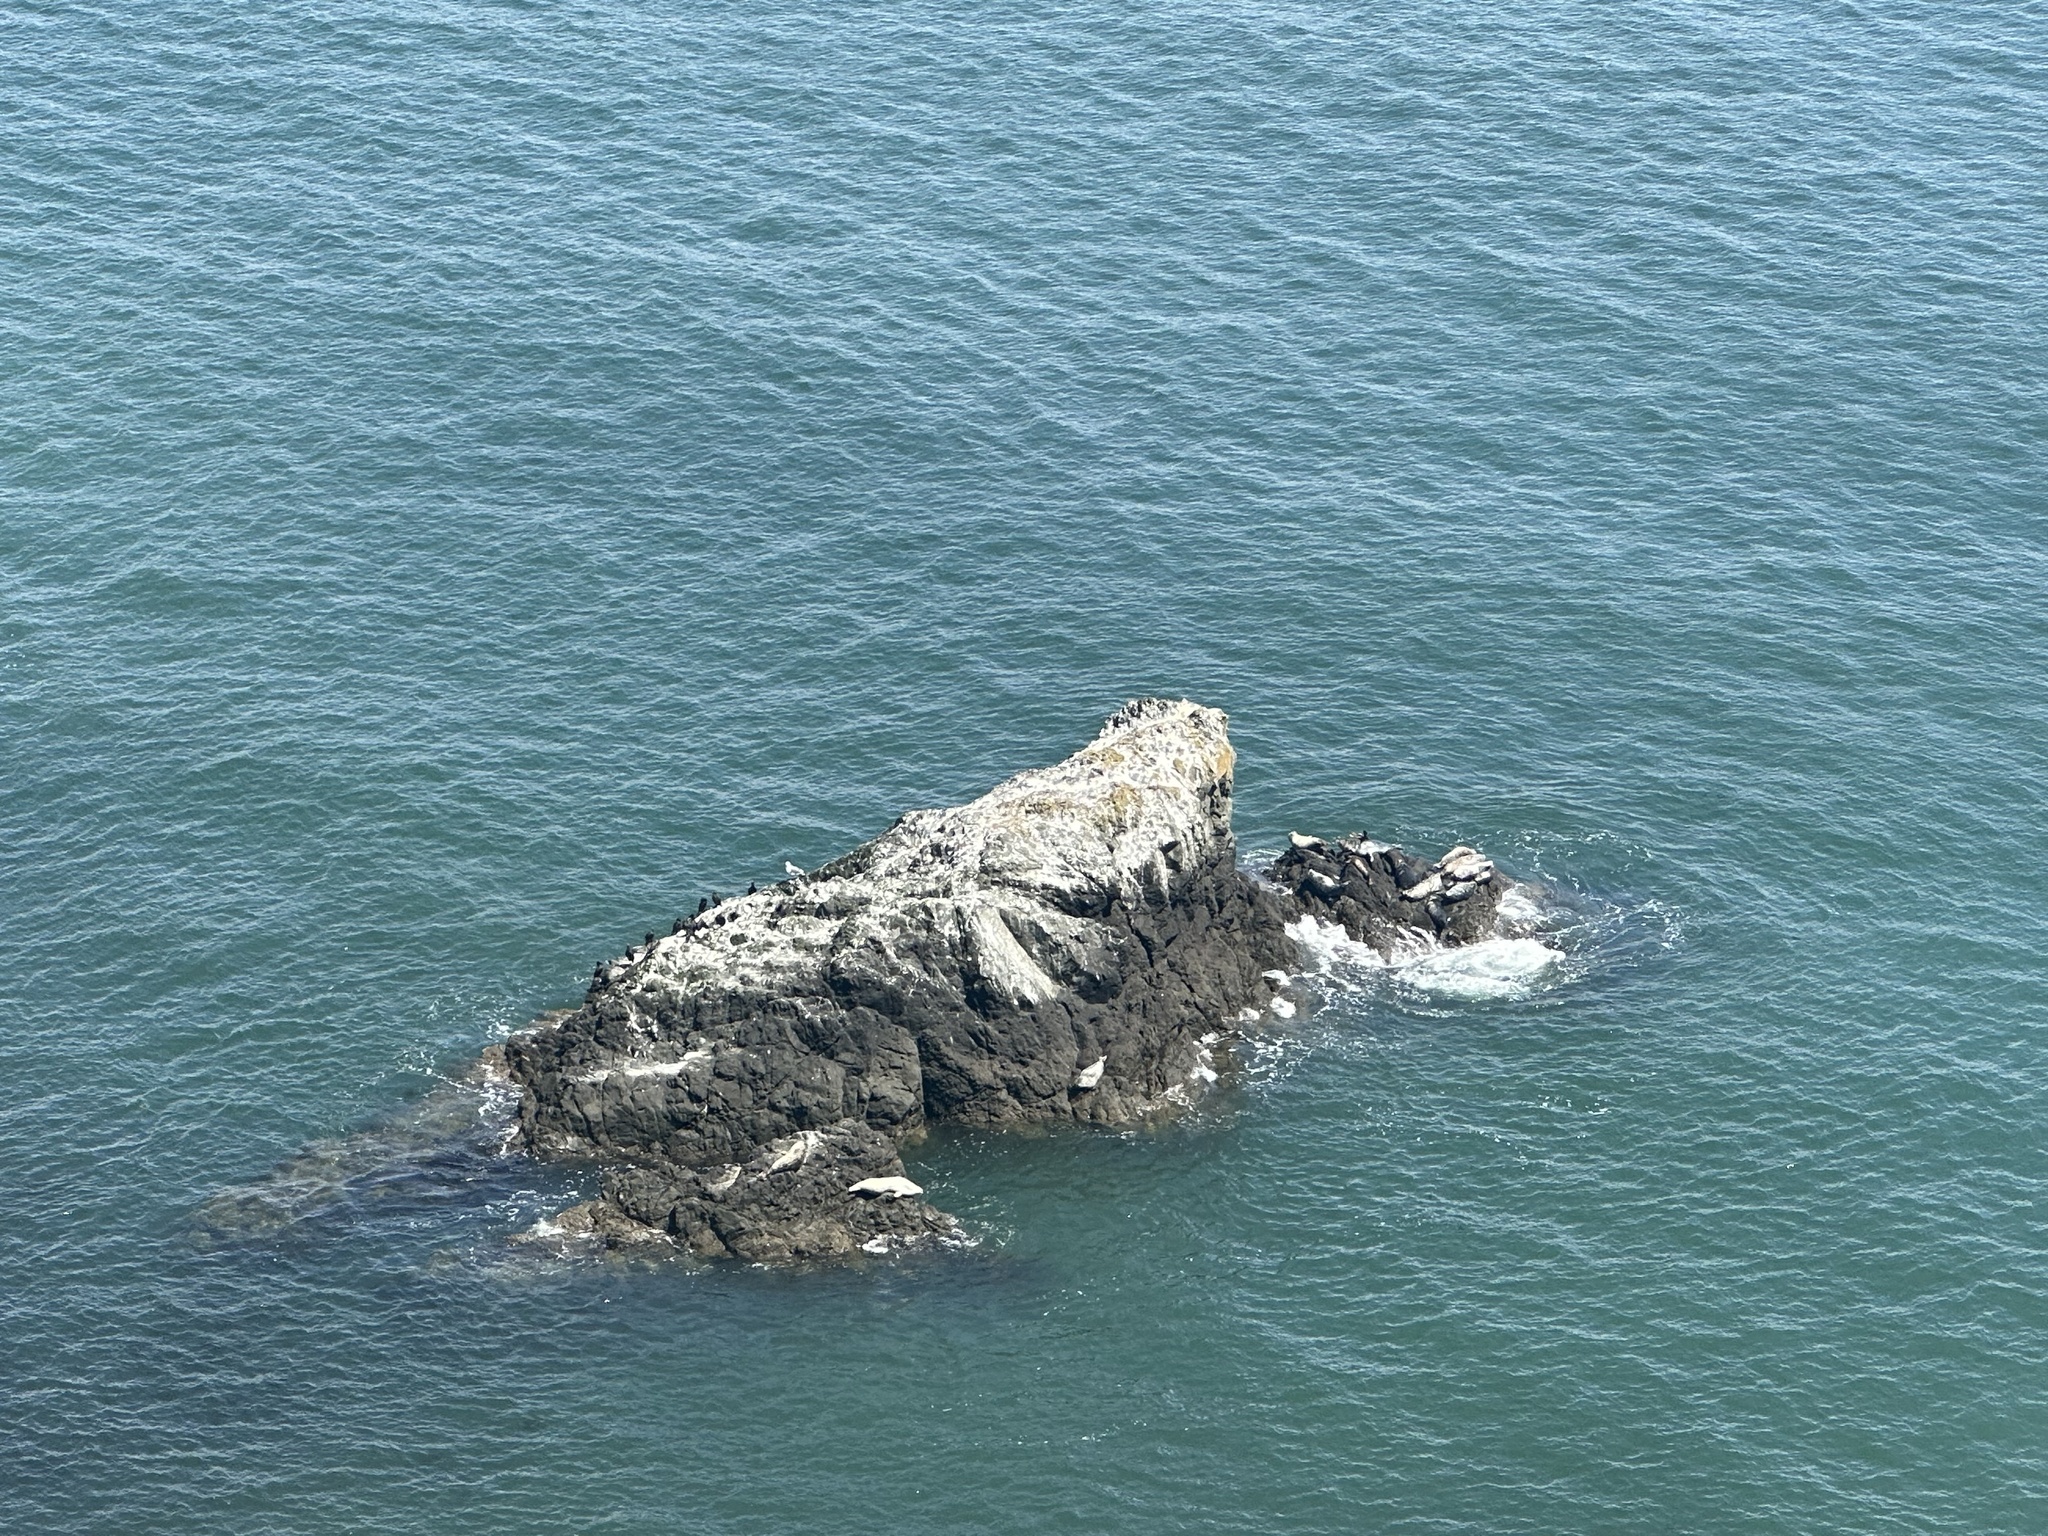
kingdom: Animalia
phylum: Chordata
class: Mammalia
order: Carnivora
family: Phocidae
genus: Phoca
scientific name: Phoca vitulina
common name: Harbor seal
